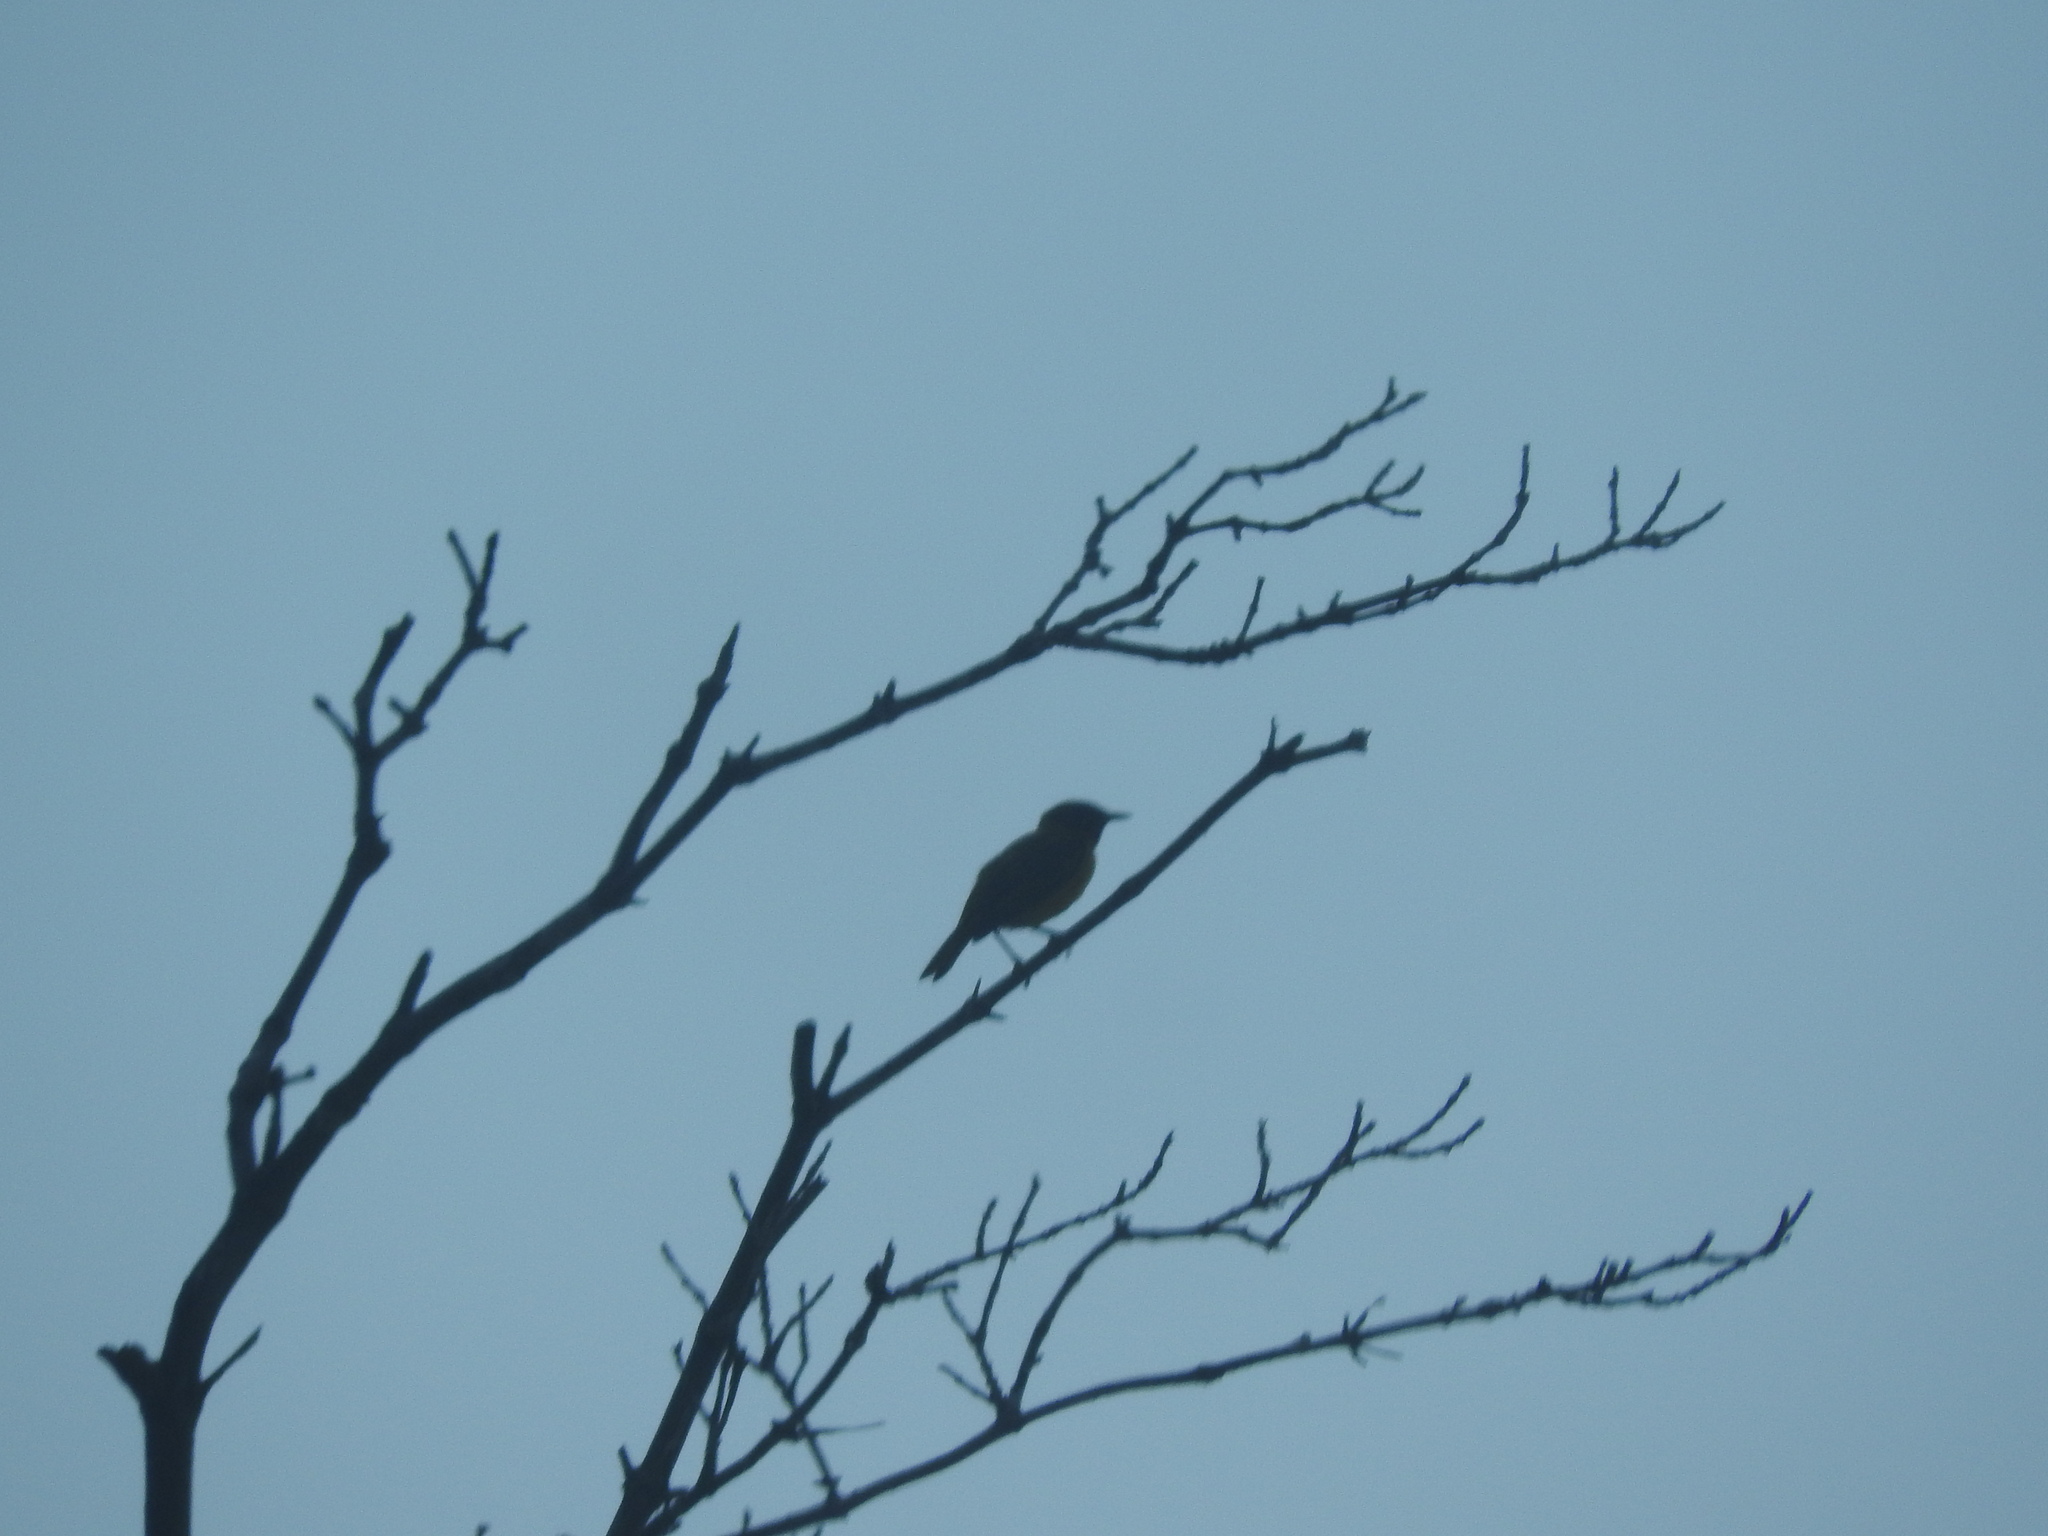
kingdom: Animalia
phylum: Chordata
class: Aves
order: Passeriformes
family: Parulidae
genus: Setophaga
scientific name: Setophaga petechia
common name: Yellow warbler
